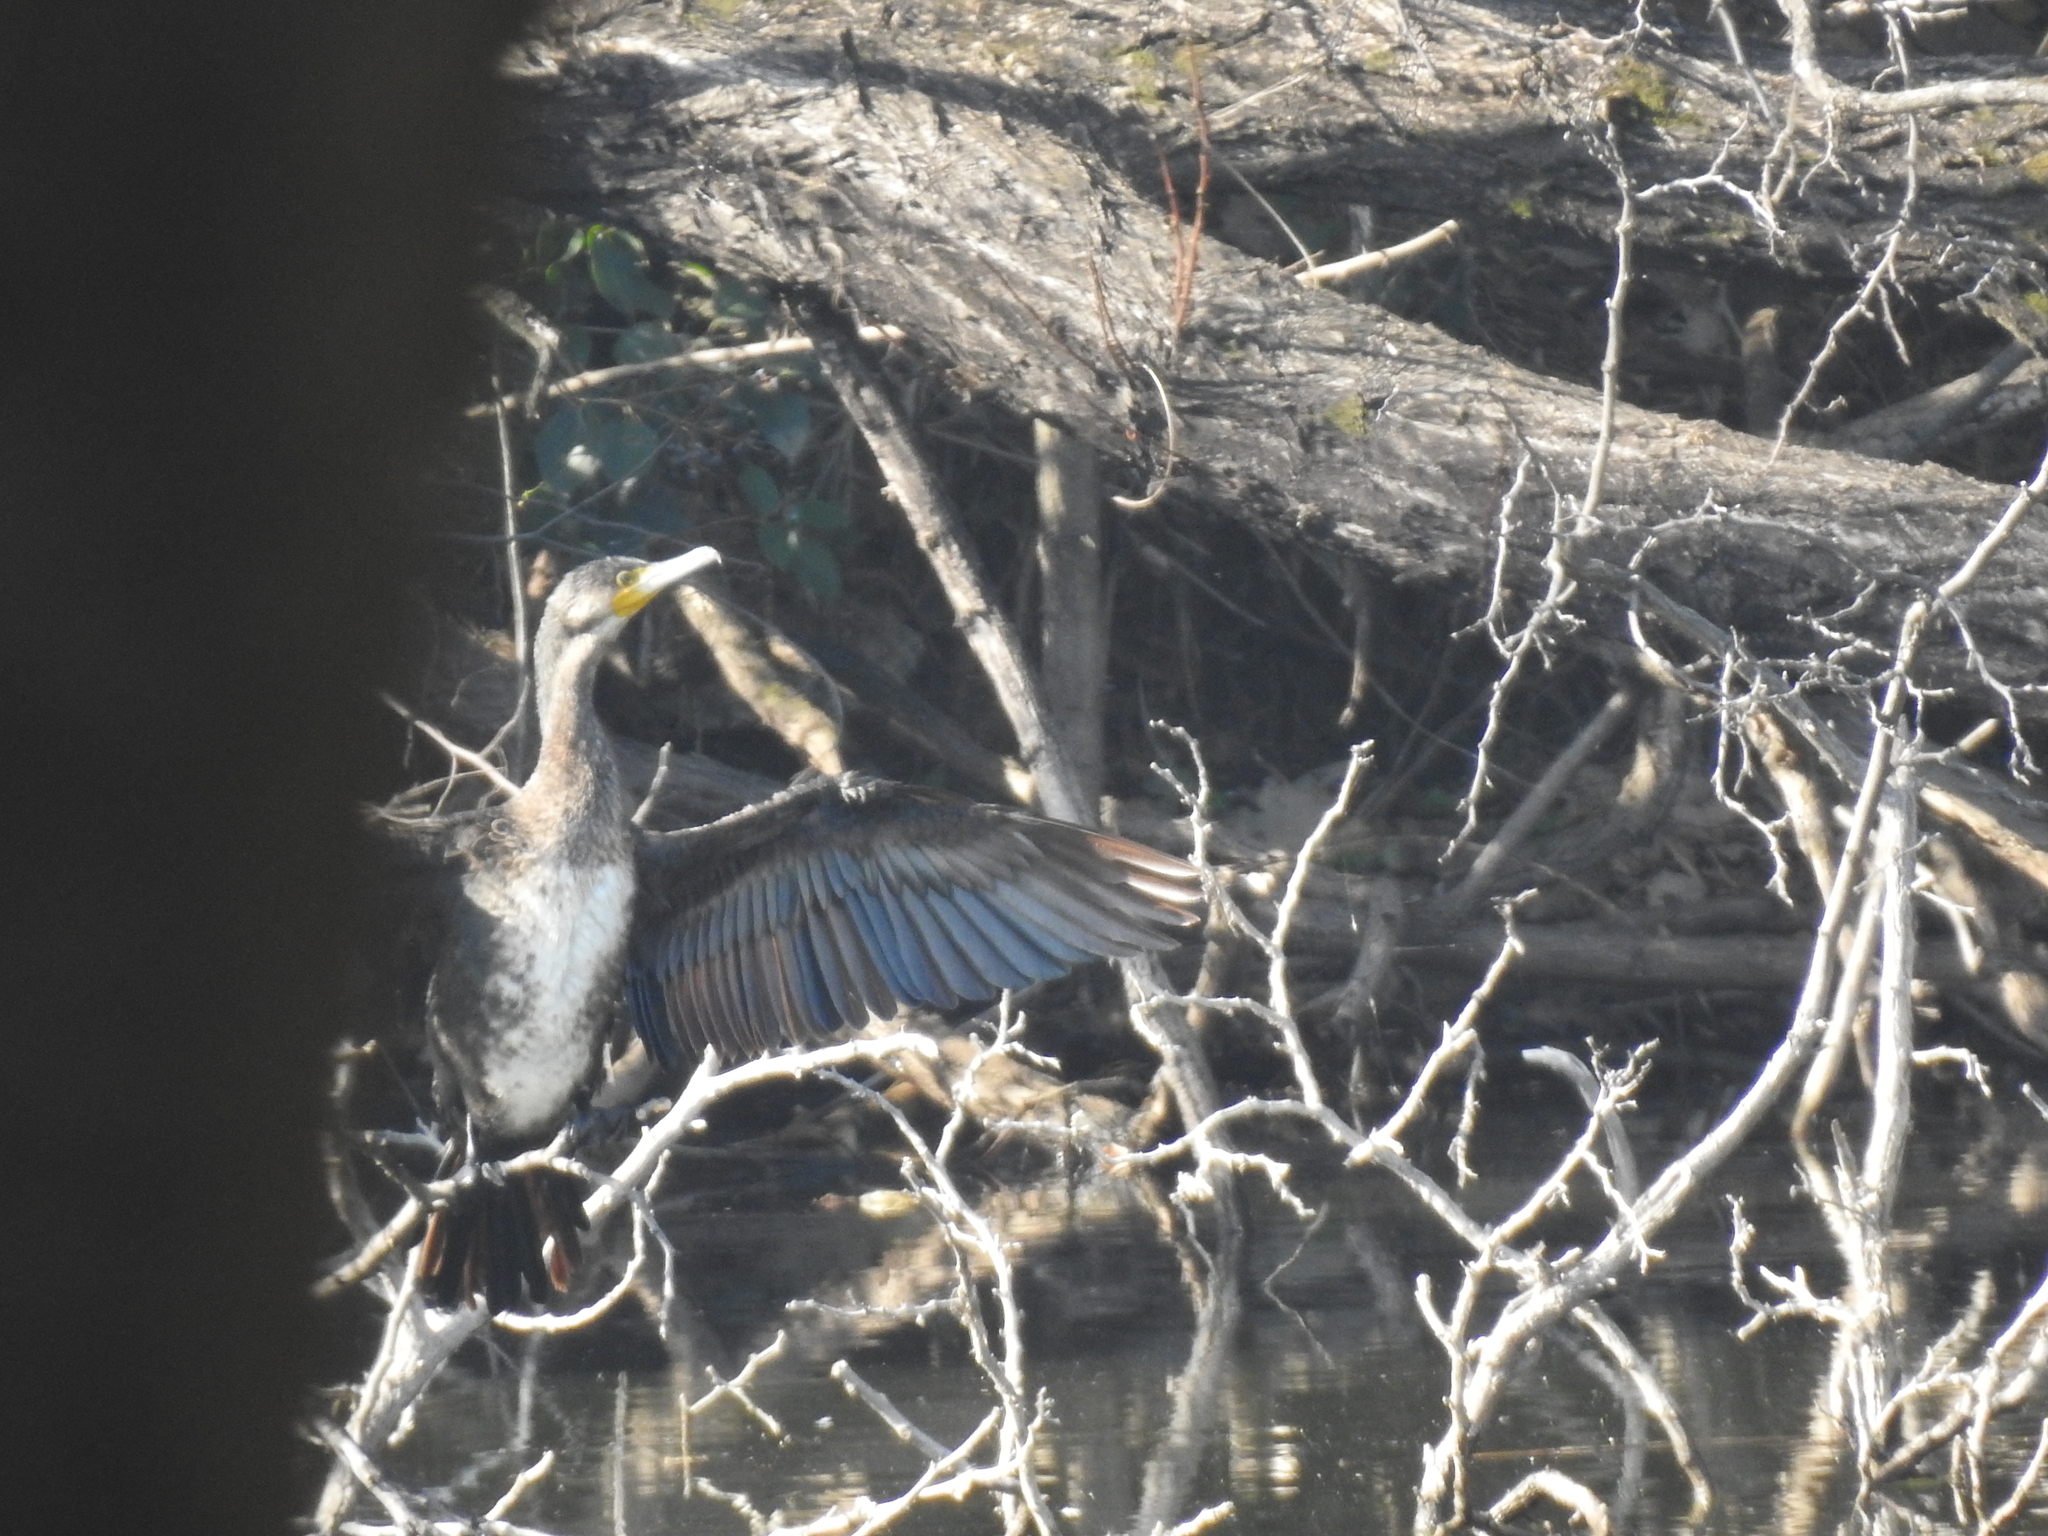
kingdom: Animalia
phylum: Chordata
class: Aves
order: Suliformes
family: Phalacrocoracidae
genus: Phalacrocorax
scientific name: Phalacrocorax carbo
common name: Great cormorant
